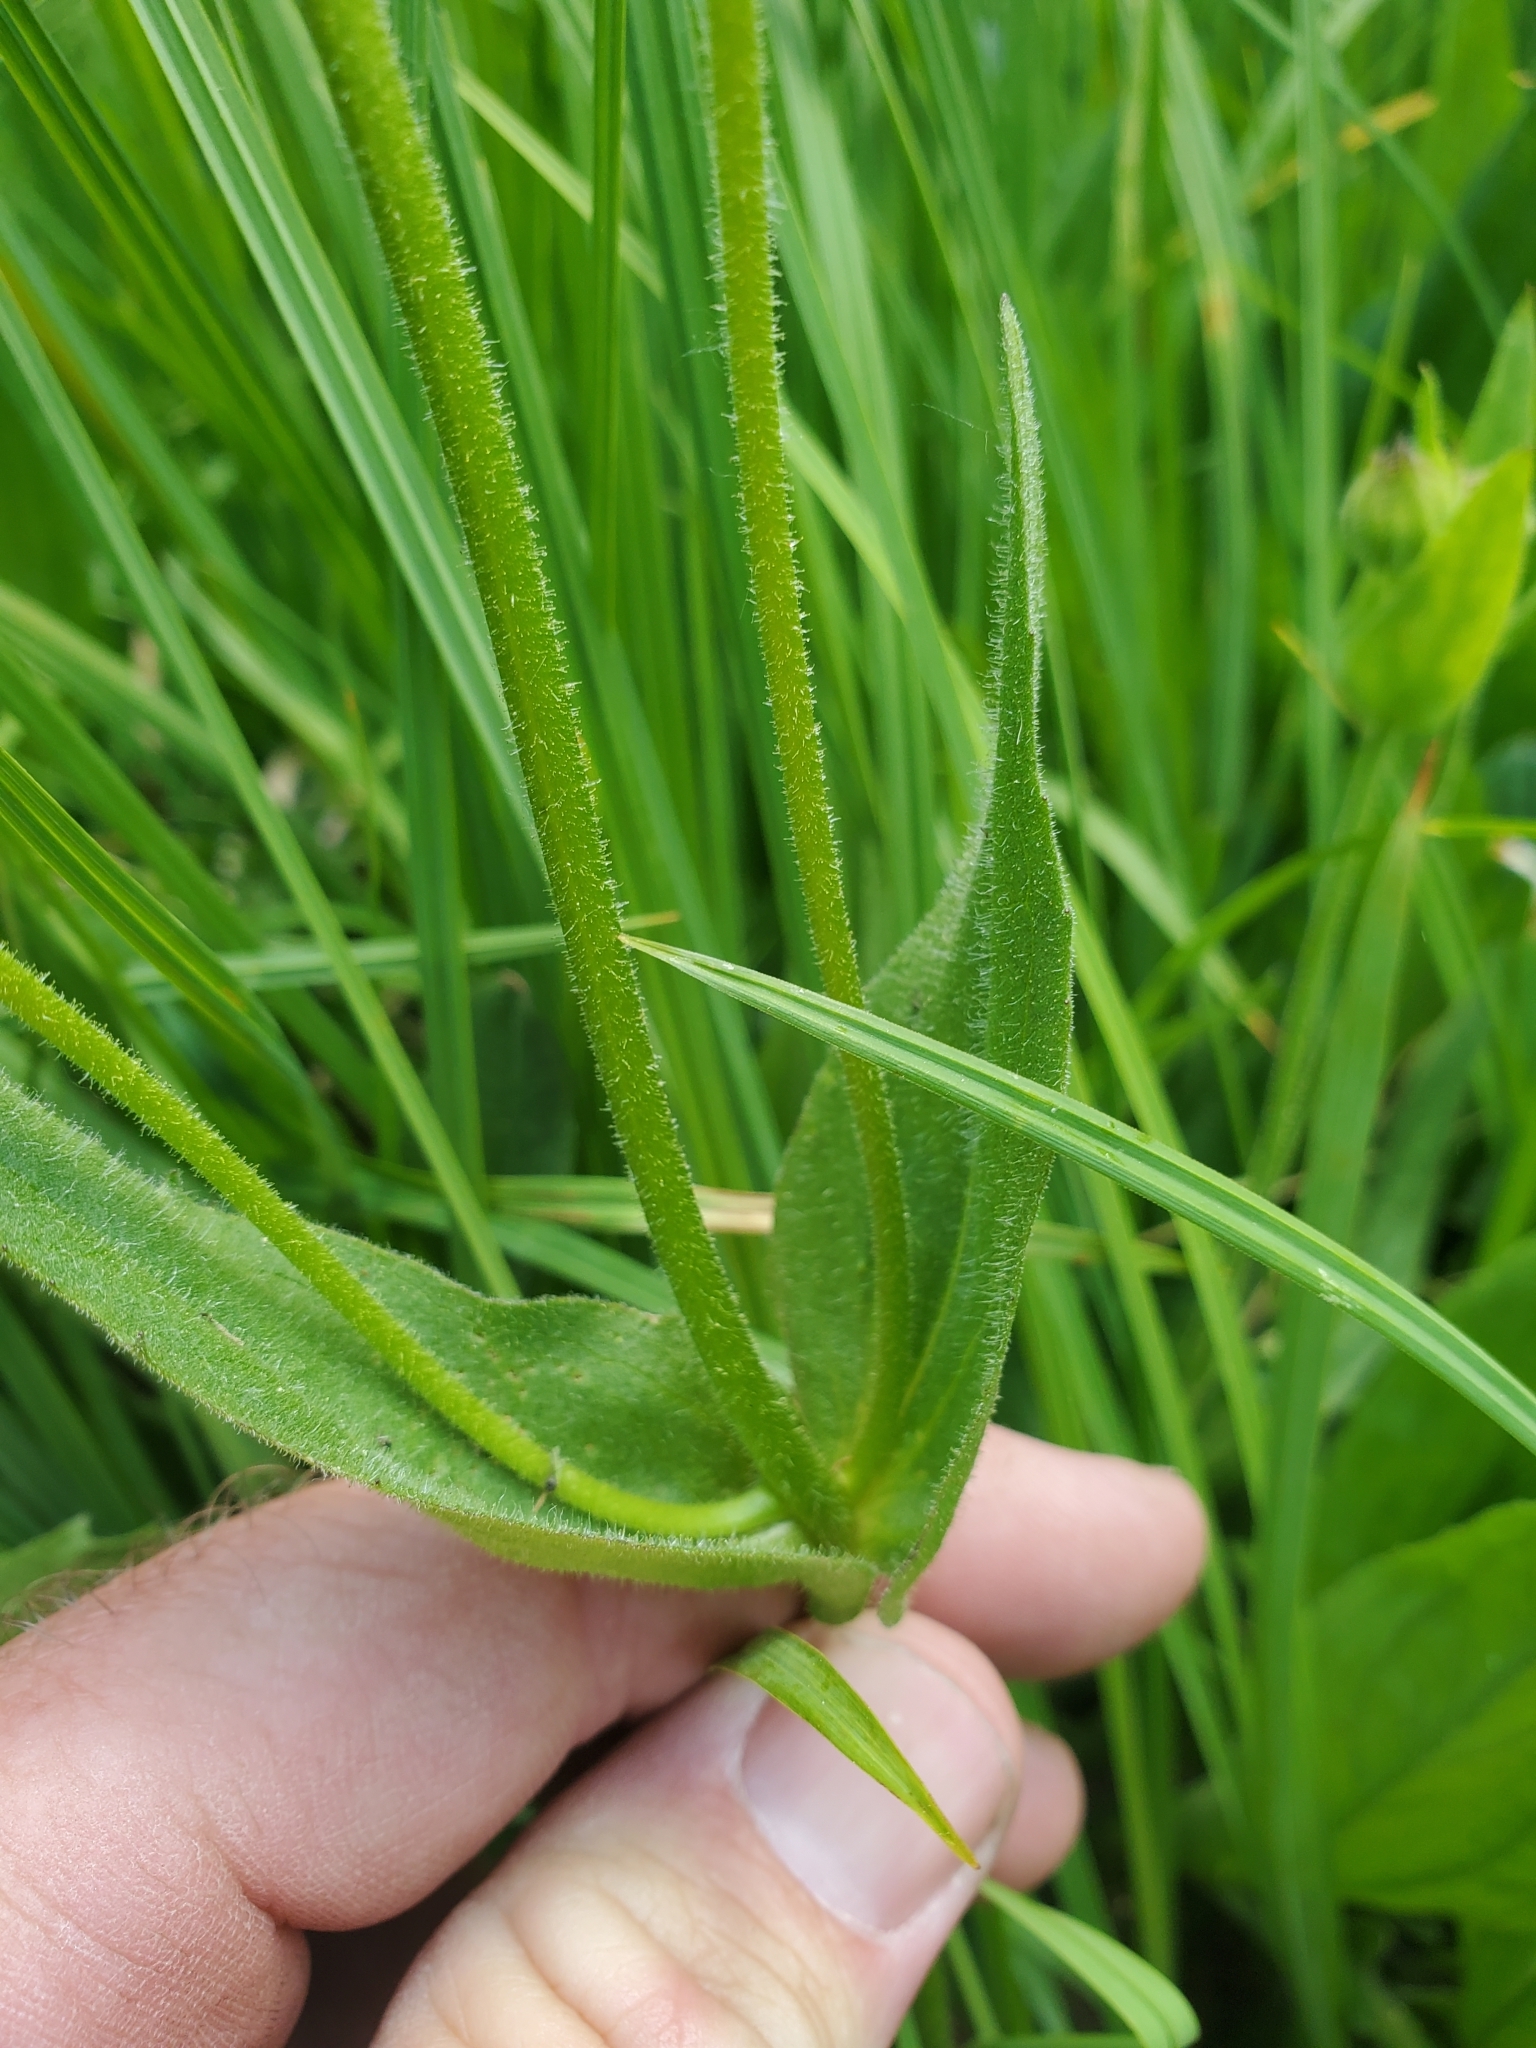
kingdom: Plantae
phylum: Tracheophyta
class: Magnoliopsida
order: Asterales
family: Asteraceae
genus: Arnica
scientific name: Arnica mollis
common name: Hairy arnica
